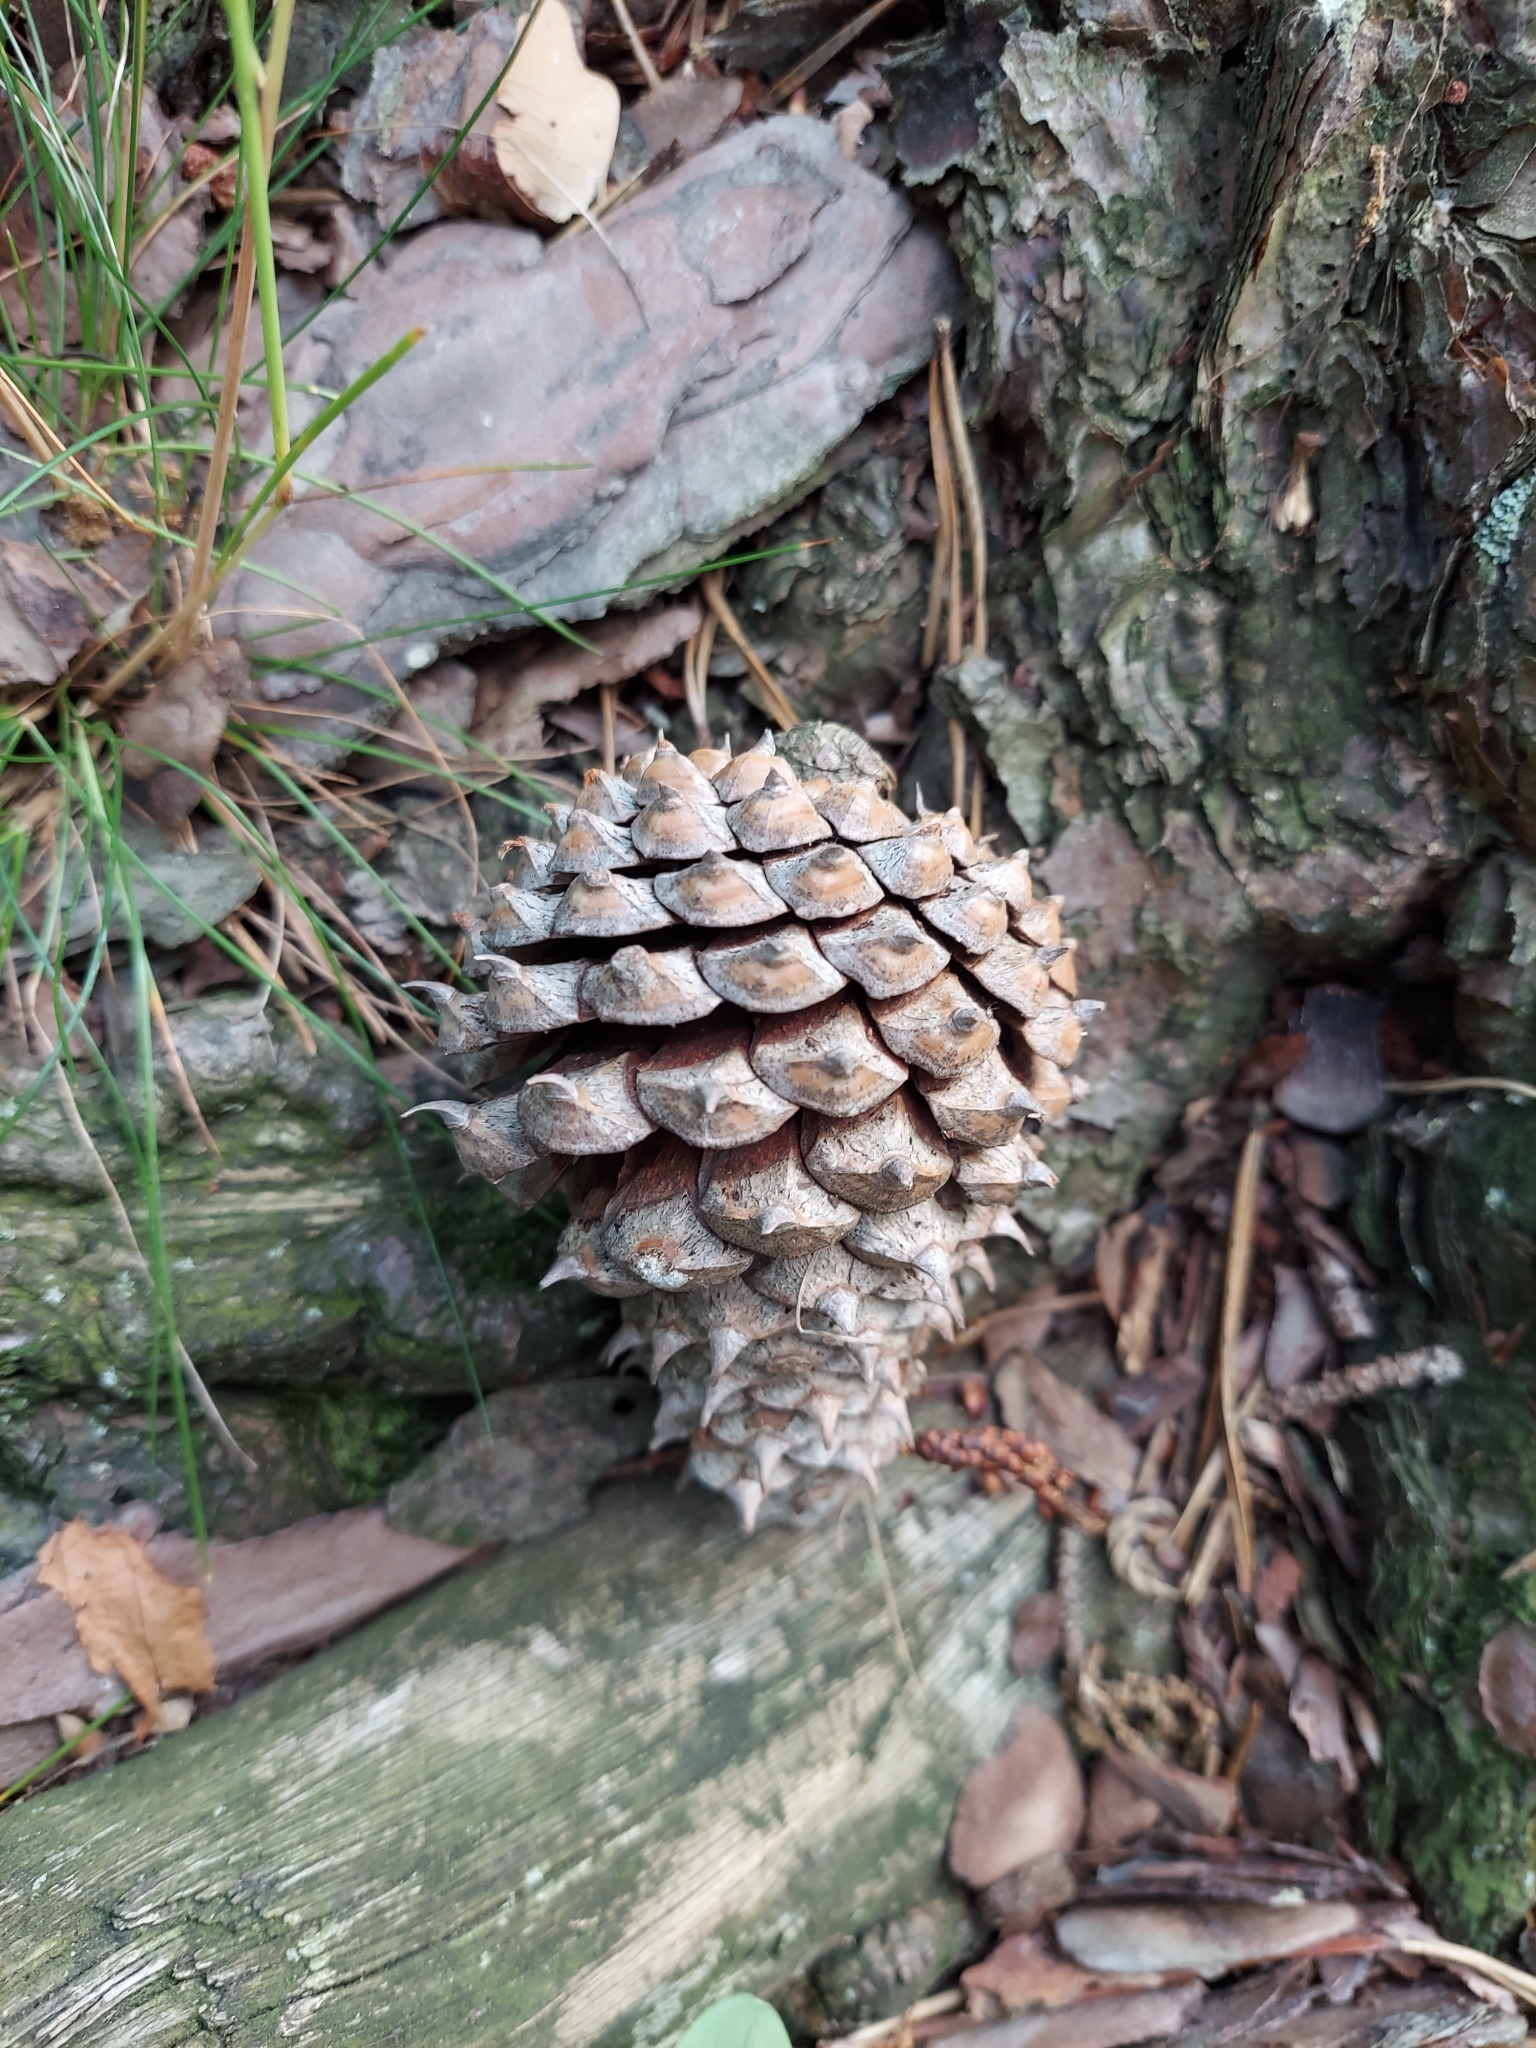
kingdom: Plantae
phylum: Tracheophyta
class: Pinopsida
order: Pinales
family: Pinaceae
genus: Pinus
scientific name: Pinus pungens
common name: Hickory pine
